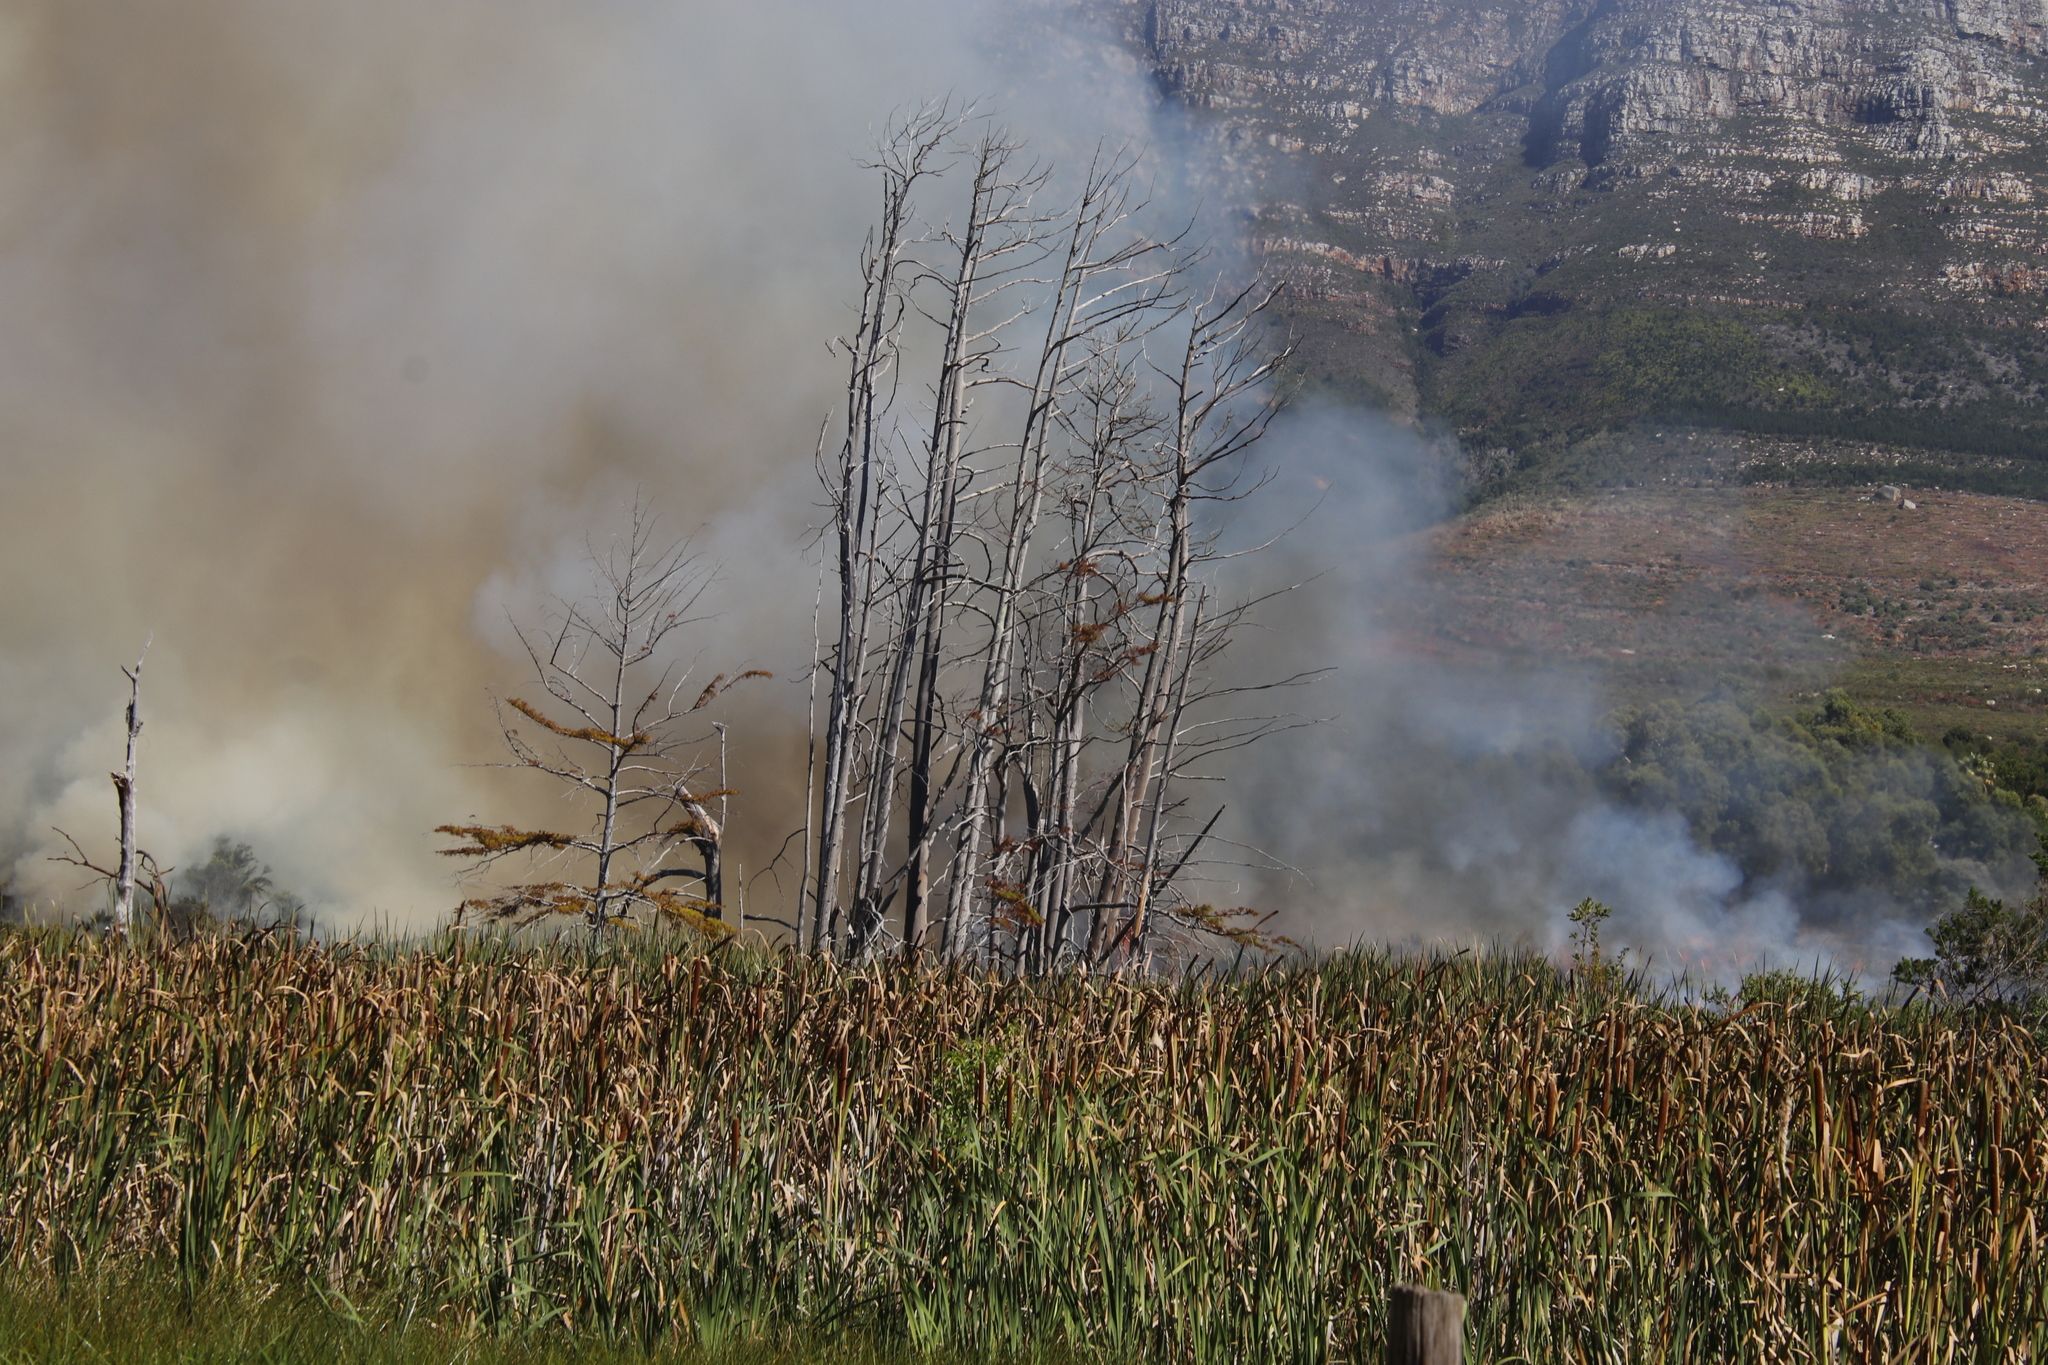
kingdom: Plantae
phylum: Tracheophyta
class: Liliopsida
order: Poales
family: Typhaceae
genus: Typha
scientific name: Typha capensis
